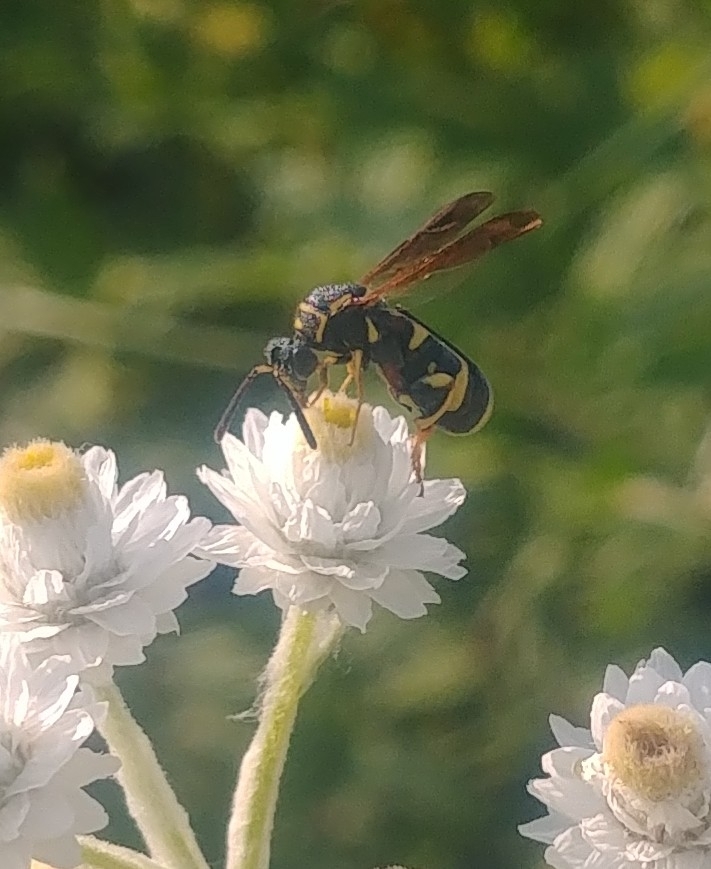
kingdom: Animalia
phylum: Arthropoda
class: Insecta
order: Hymenoptera
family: Leucospidae
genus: Leucospis
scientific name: Leucospis affinis
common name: Wasp
